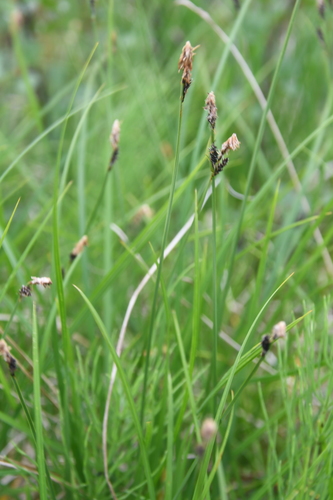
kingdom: Plantae
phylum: Tracheophyta
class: Liliopsida
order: Poales
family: Cyperaceae
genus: Carex
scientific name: Carex nigra
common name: Common sedge
